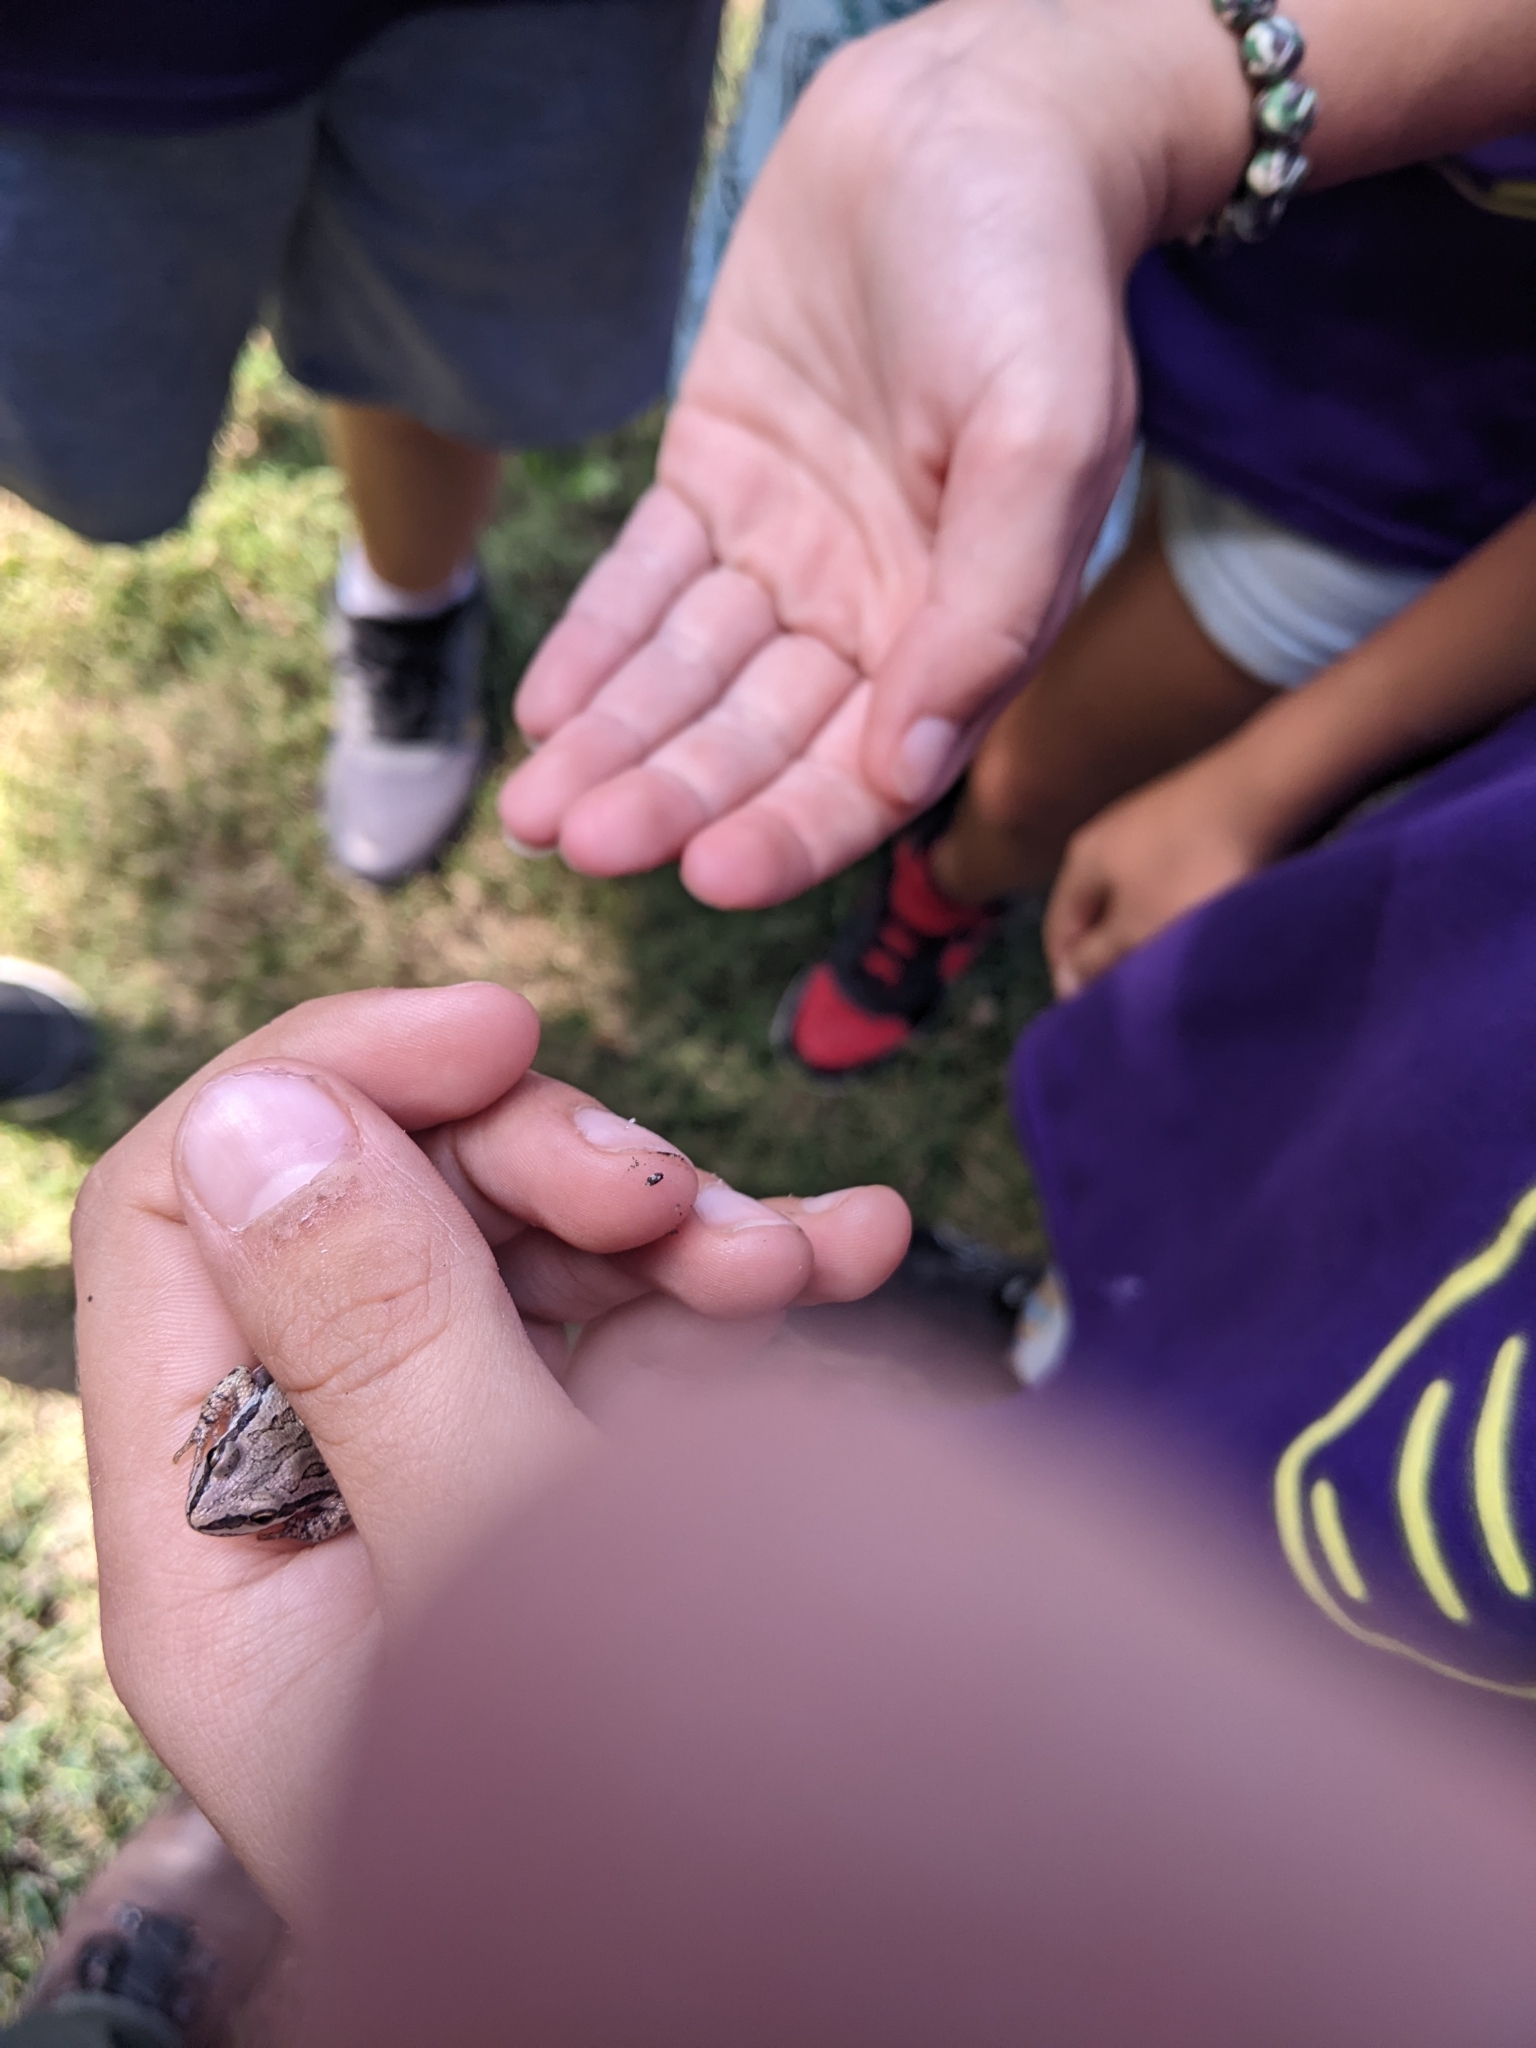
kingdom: Animalia
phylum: Chordata
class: Amphibia
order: Anura
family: Hylidae
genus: Pseudacris
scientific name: Pseudacris maculata
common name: Boreal chorus frog
